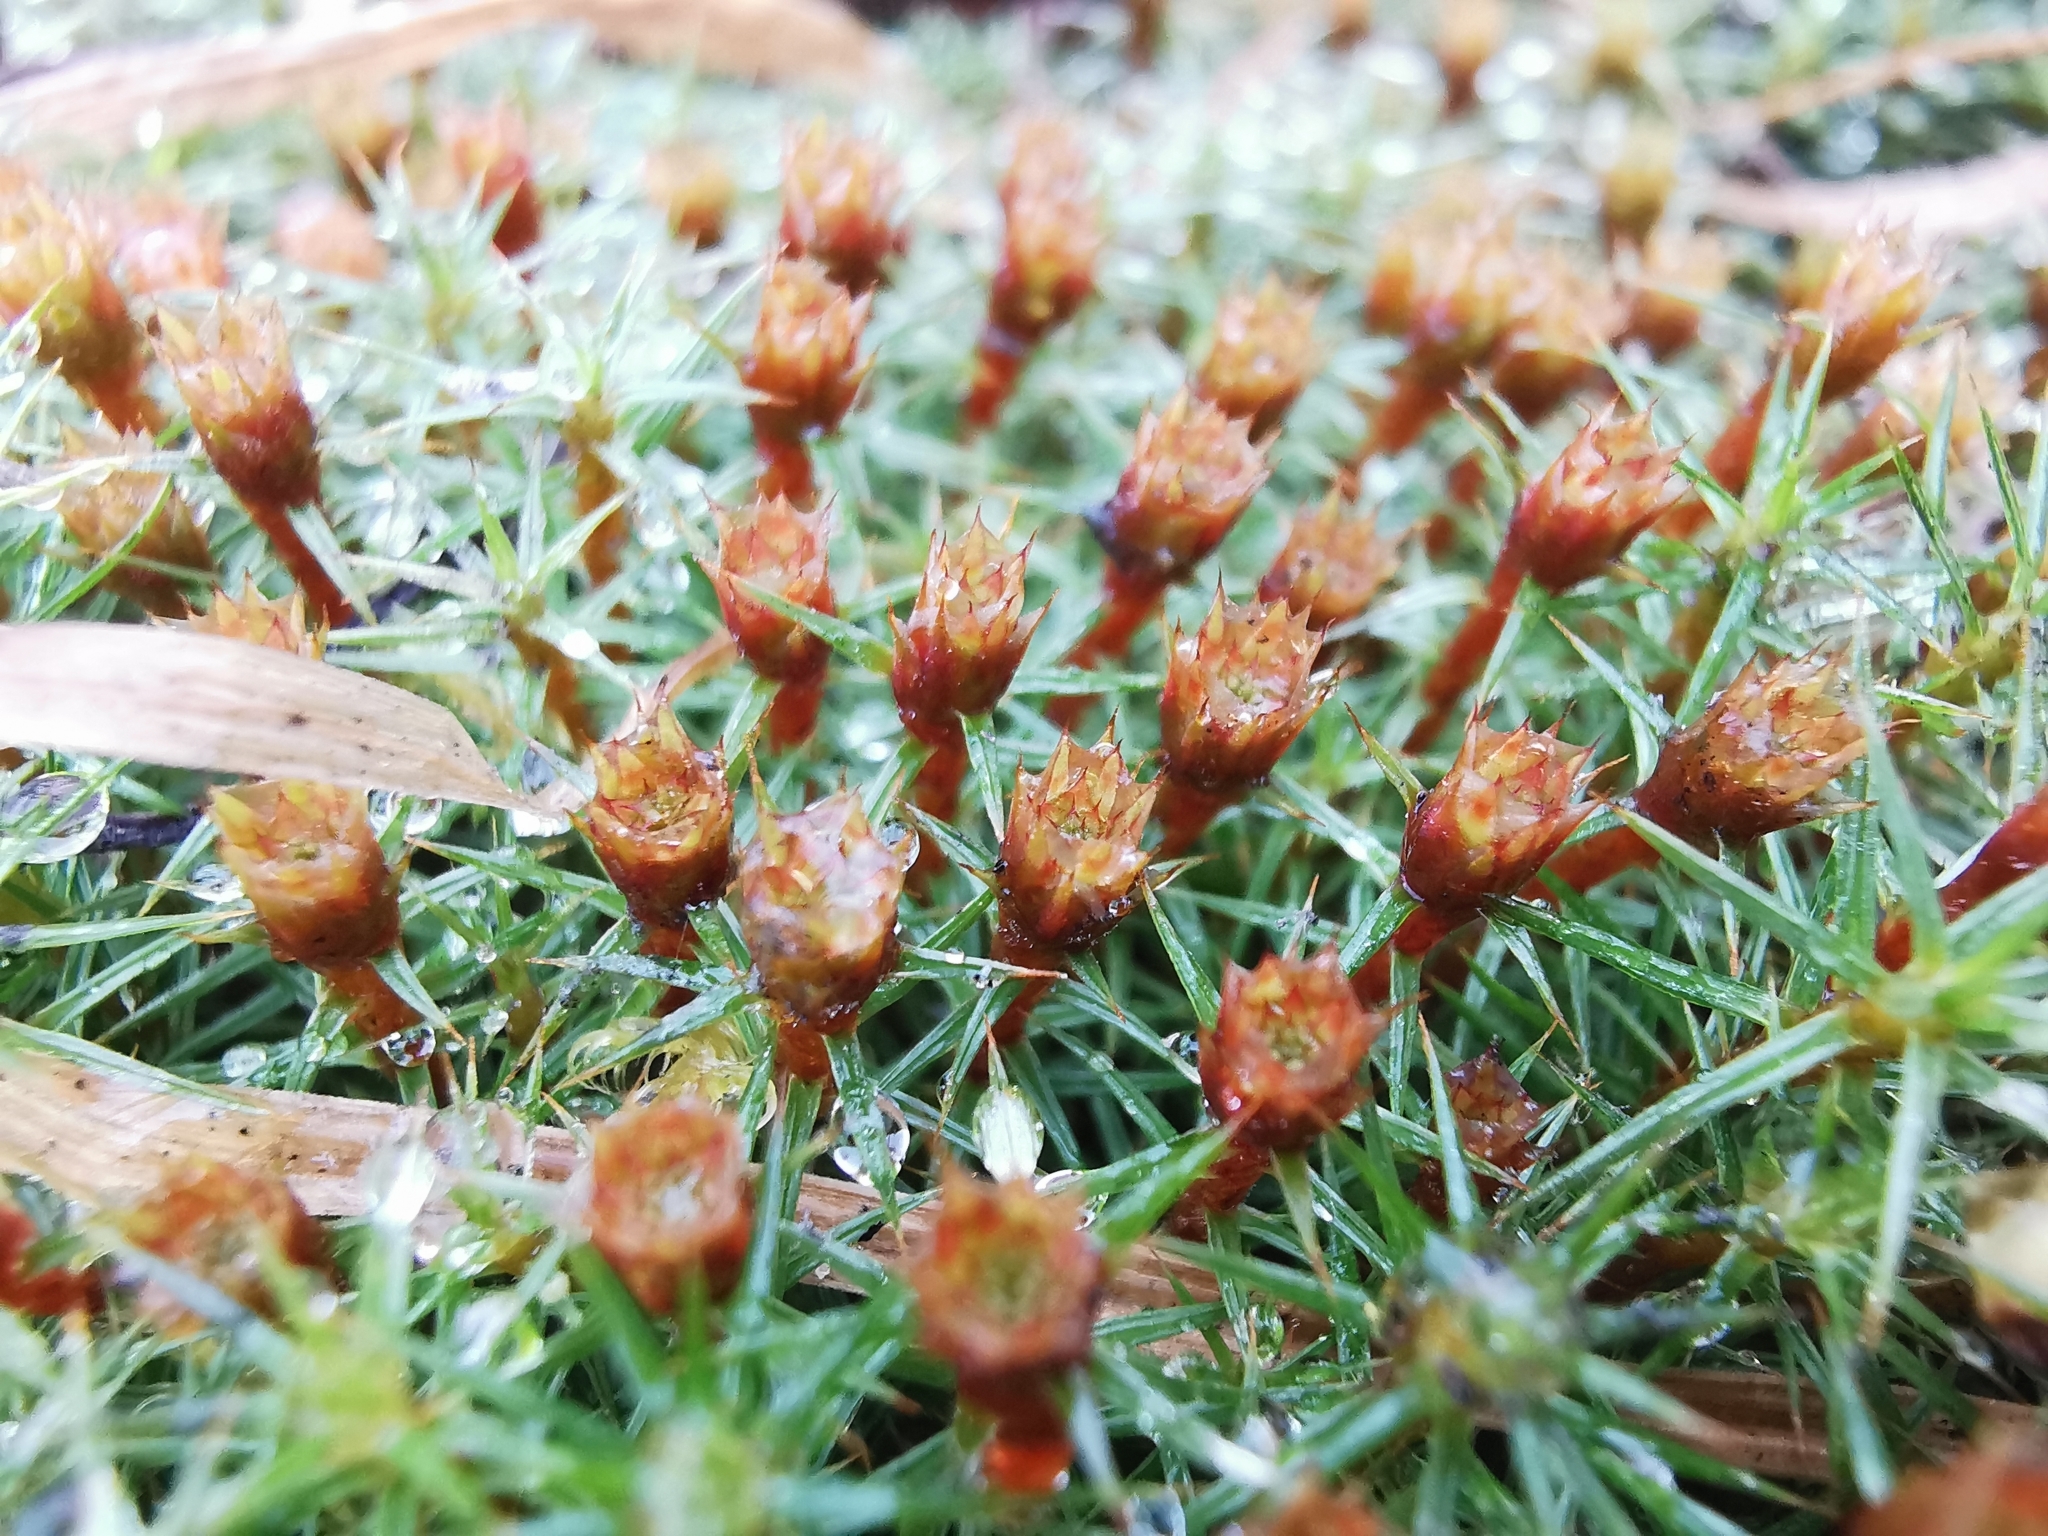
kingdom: Plantae
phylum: Bryophyta
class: Polytrichopsida
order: Polytrichales
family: Polytrichaceae
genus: Polytrichum
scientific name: Polytrichum commune
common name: Common haircap
